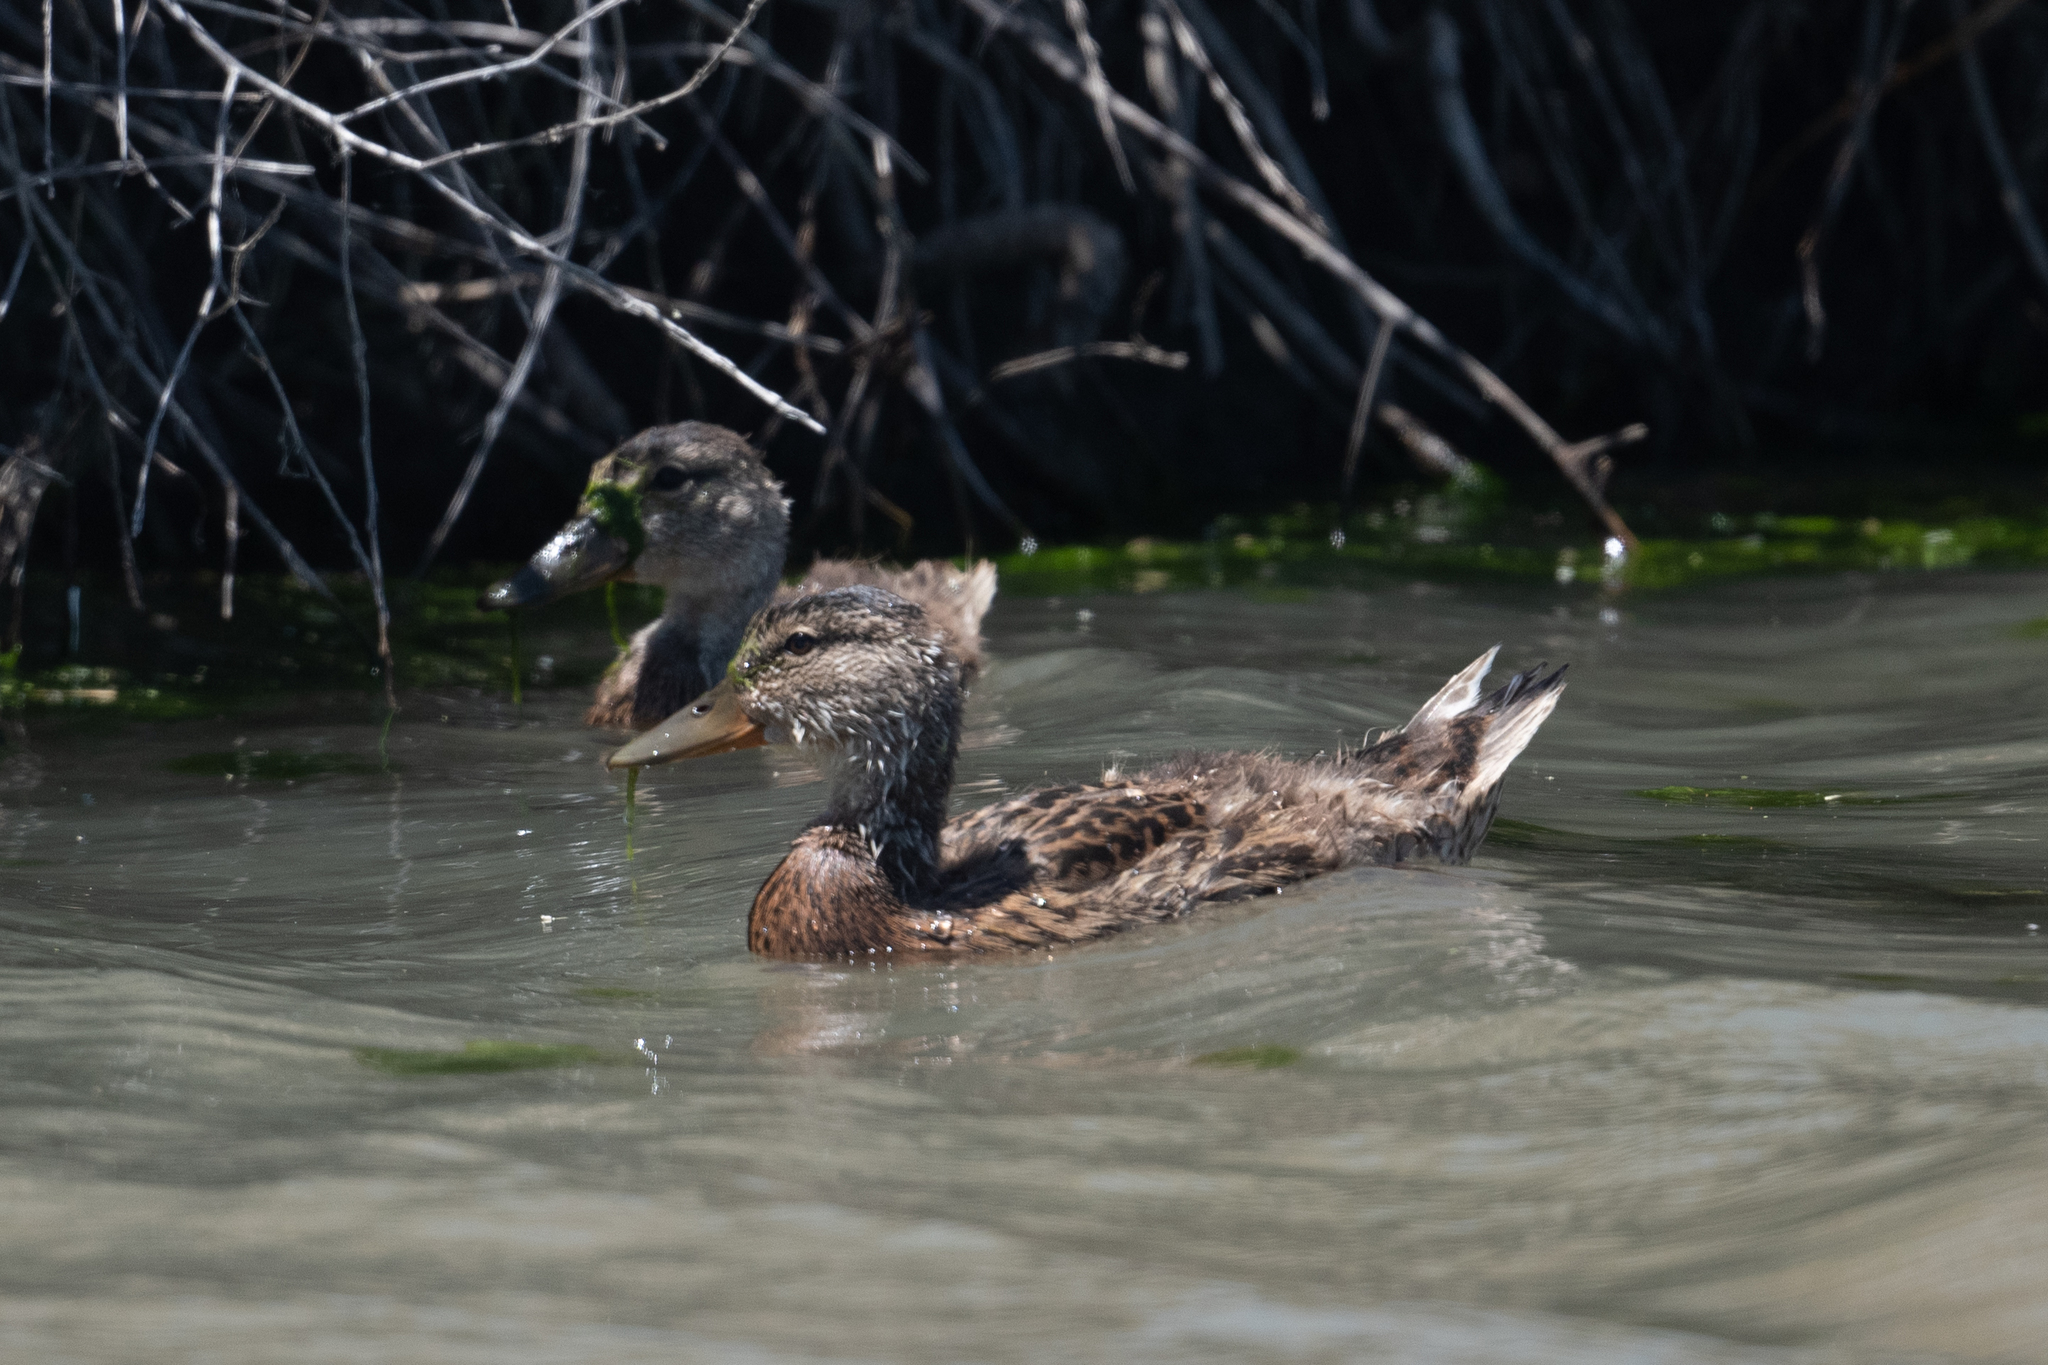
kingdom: Animalia
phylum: Chordata
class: Aves
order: Anseriformes
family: Anatidae
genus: Anas
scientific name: Anas platyrhynchos
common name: Mallard
